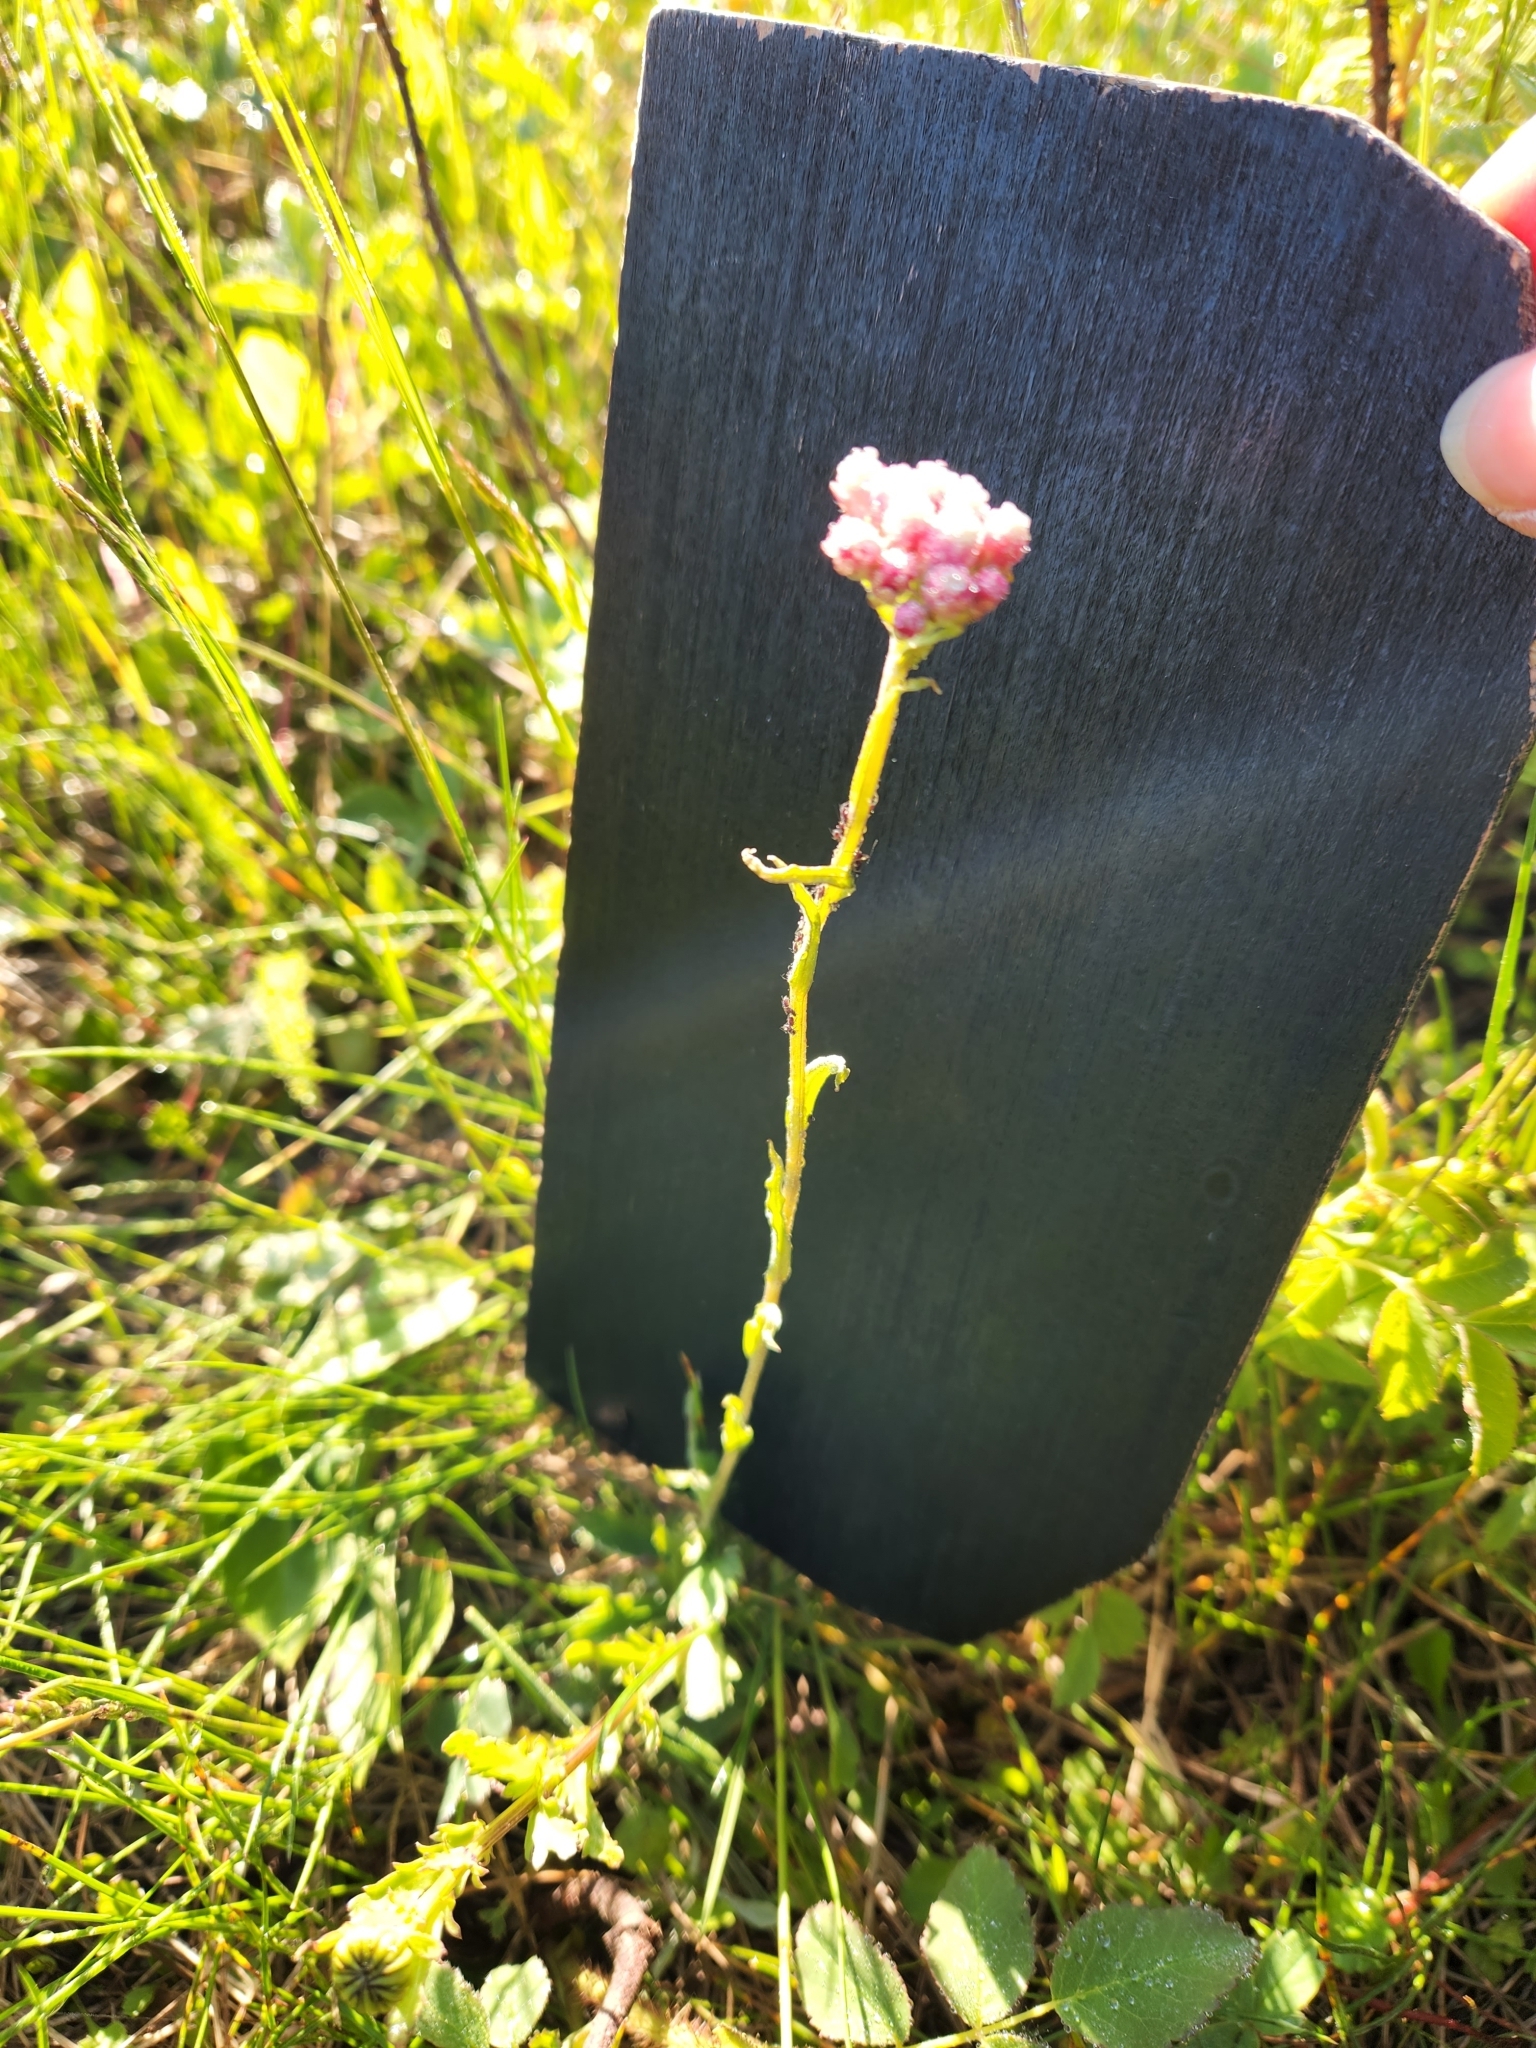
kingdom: Plantae
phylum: Tracheophyta
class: Magnoliopsida
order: Asterales
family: Asteraceae
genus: Antennaria
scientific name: Antennaria rosea
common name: Rosy pussytoes
